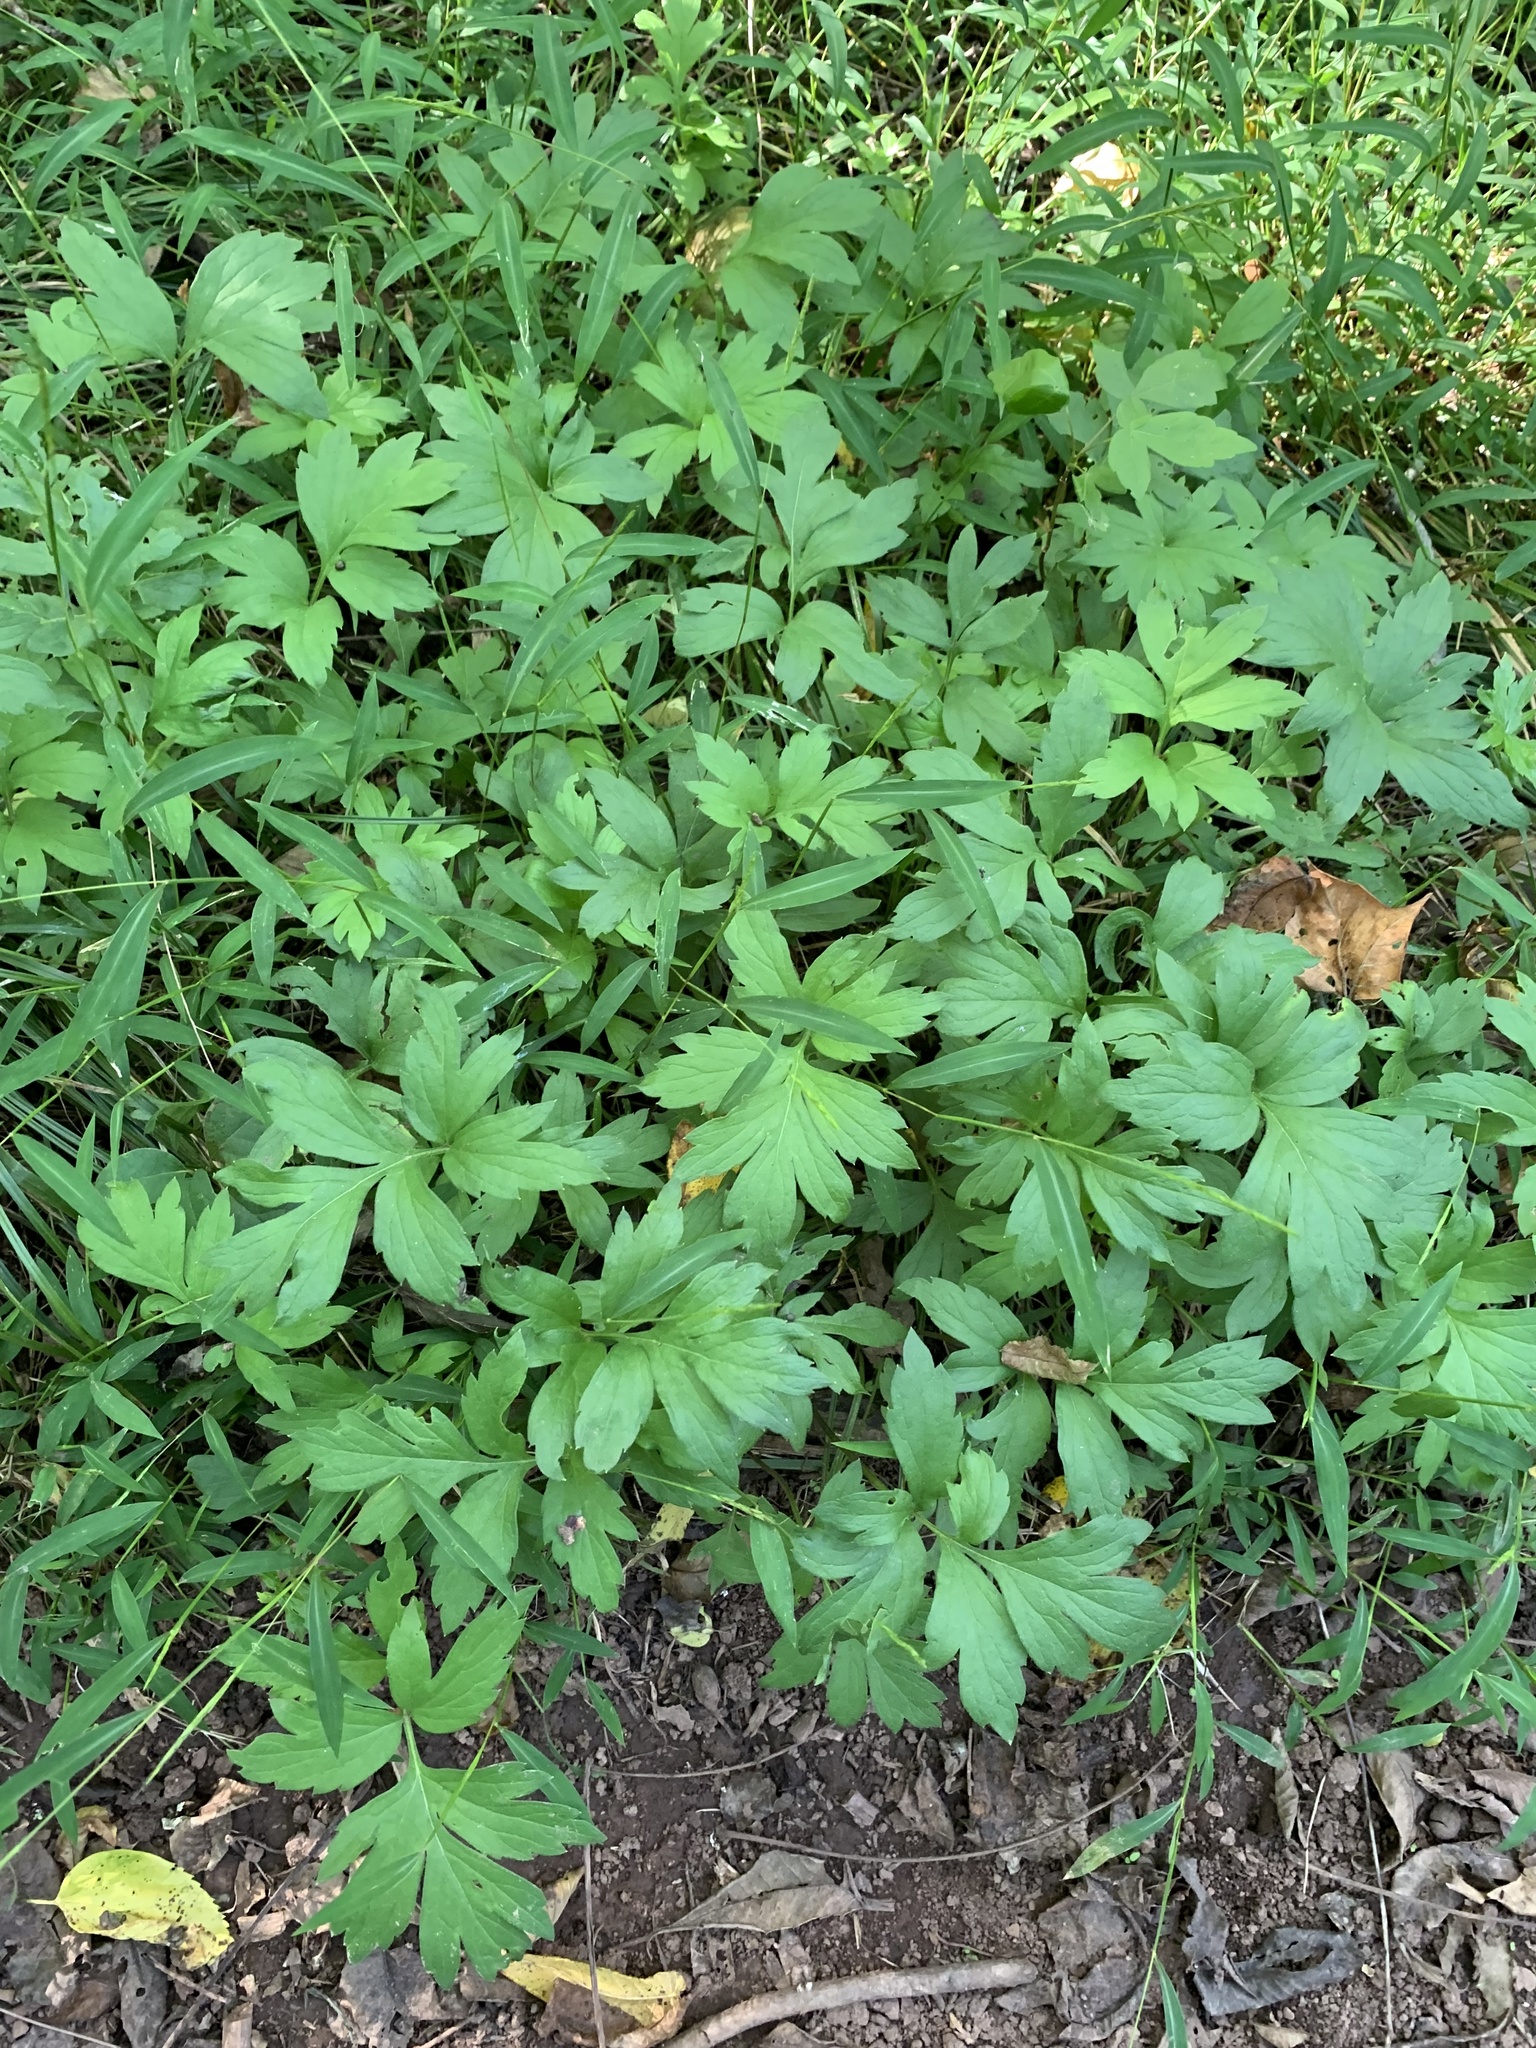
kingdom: Plantae
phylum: Tracheophyta
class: Magnoliopsida
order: Boraginales
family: Hydrophyllaceae
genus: Hydrophyllum
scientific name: Hydrophyllum virginianum
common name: Virginia waterleaf
